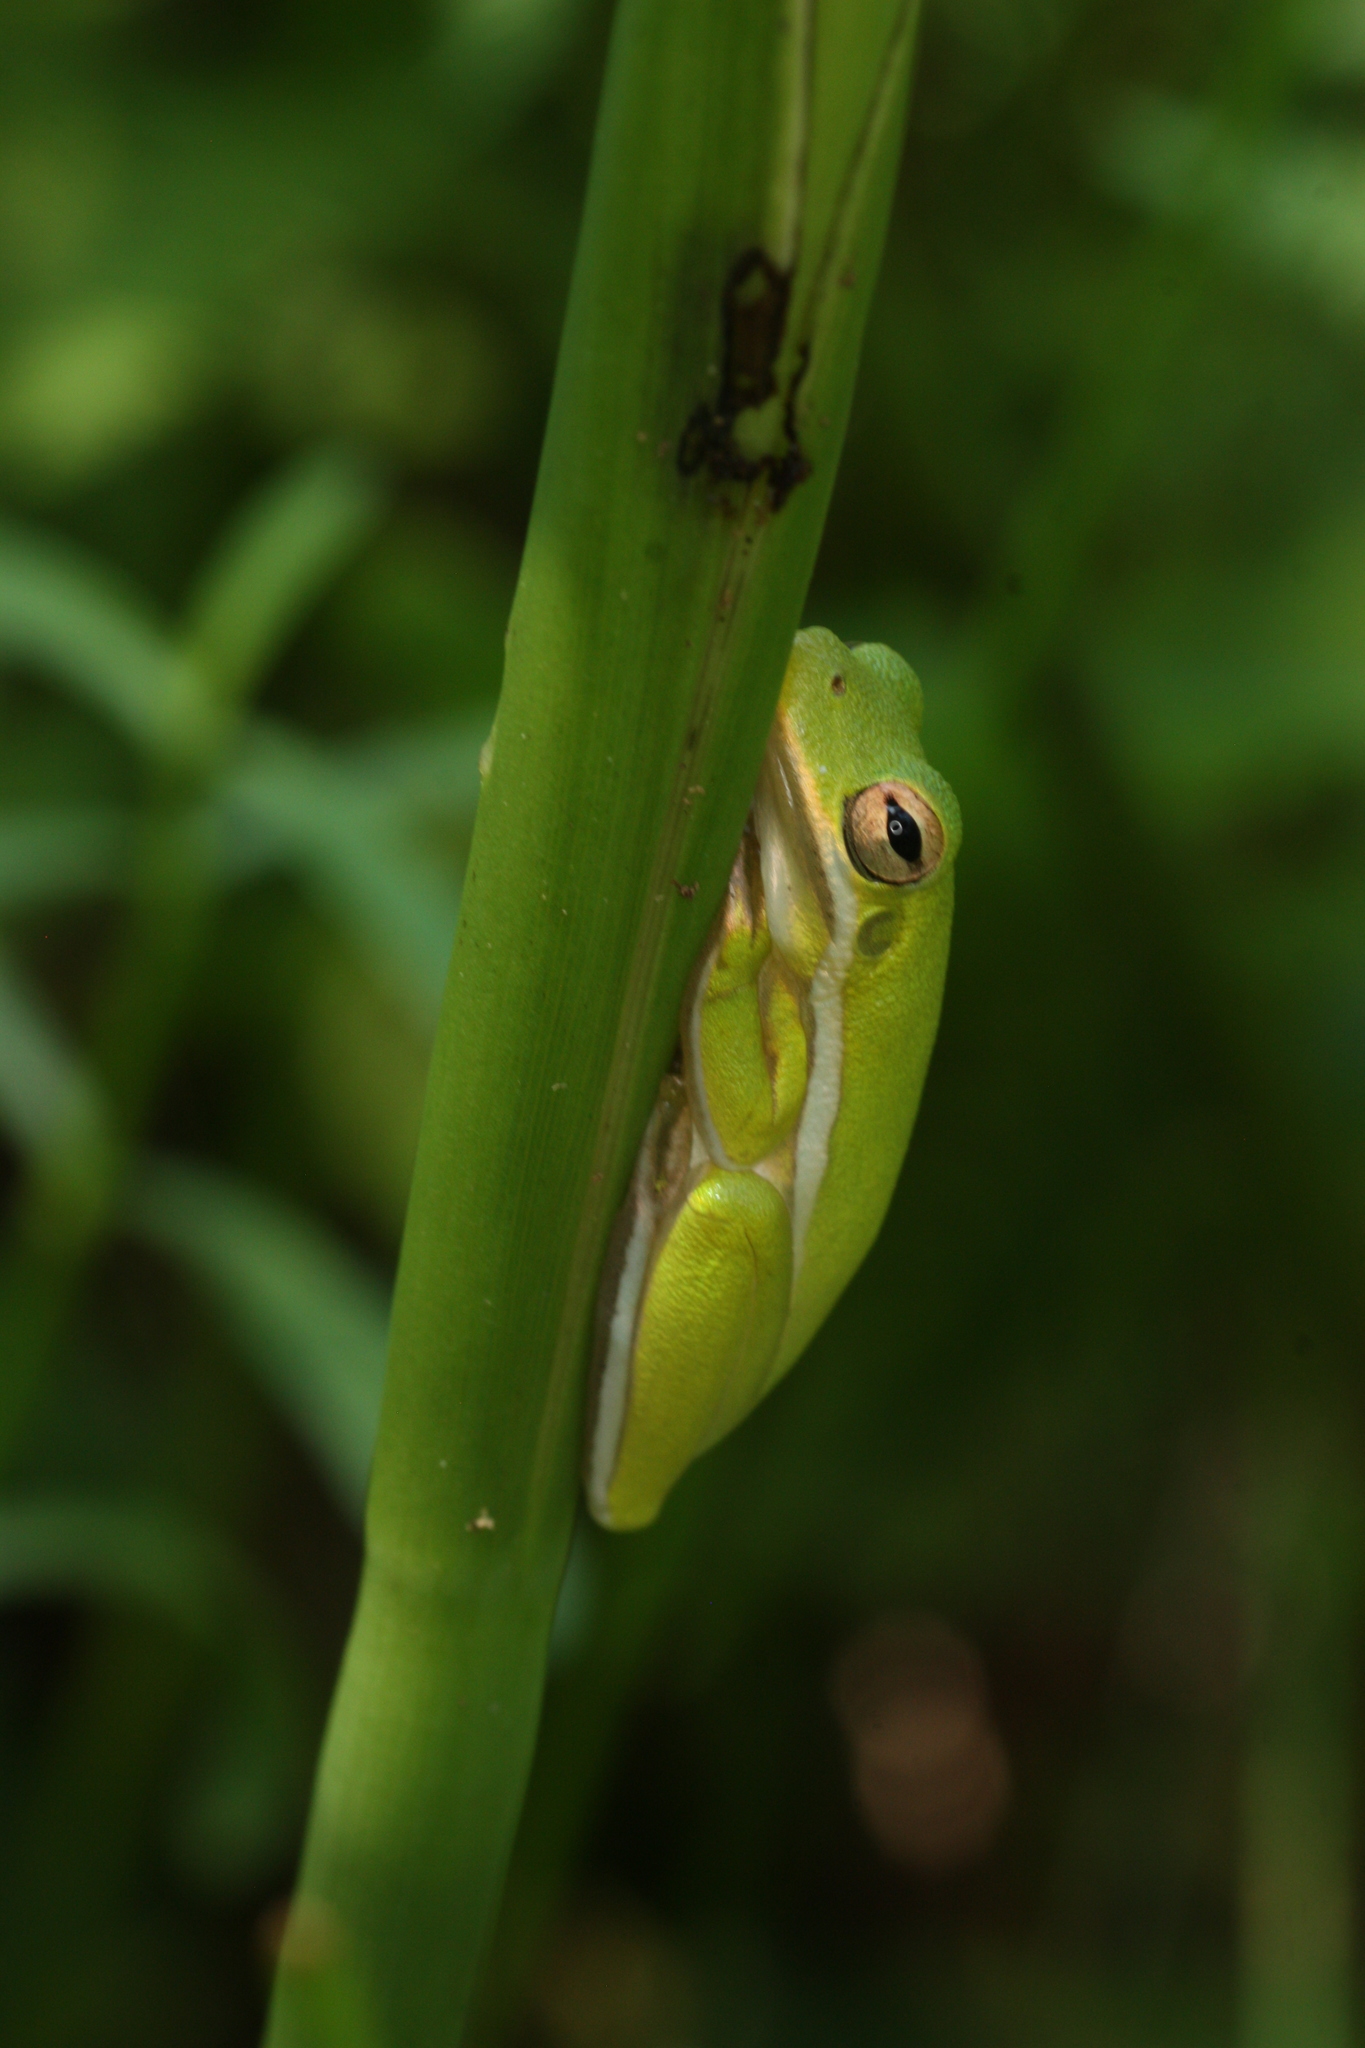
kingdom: Animalia
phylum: Chordata
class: Amphibia
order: Anura
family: Hylidae
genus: Dryophytes
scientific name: Dryophytes cinereus
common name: Green treefrog
